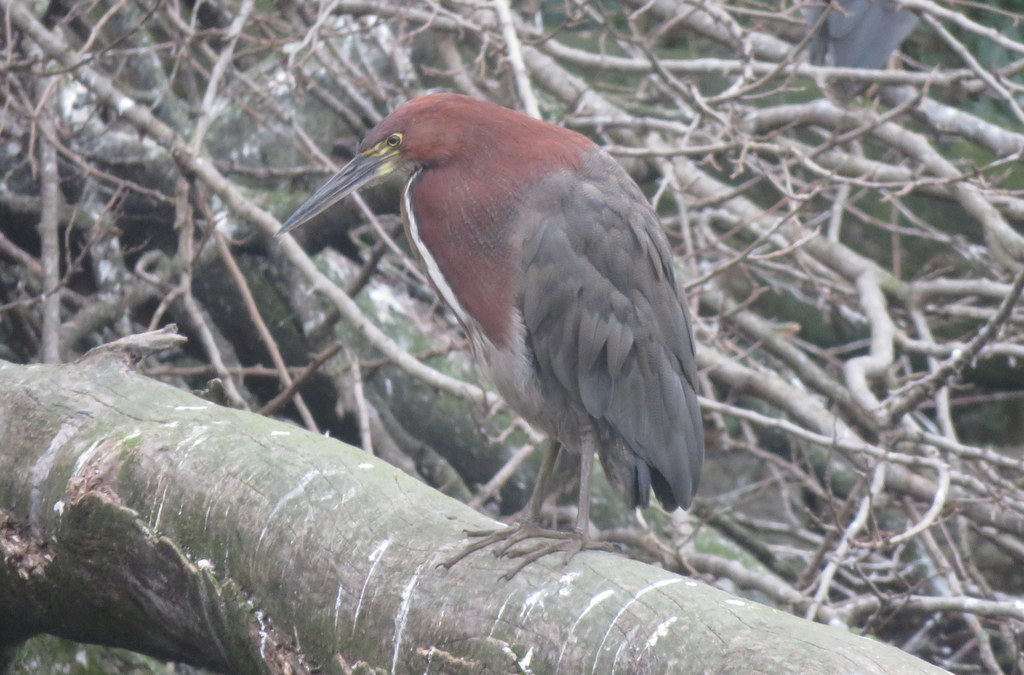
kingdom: Animalia
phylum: Chordata
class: Aves
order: Pelecaniformes
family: Ardeidae
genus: Tigrisoma
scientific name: Tigrisoma lineatum
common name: Rufescent tiger-heron
